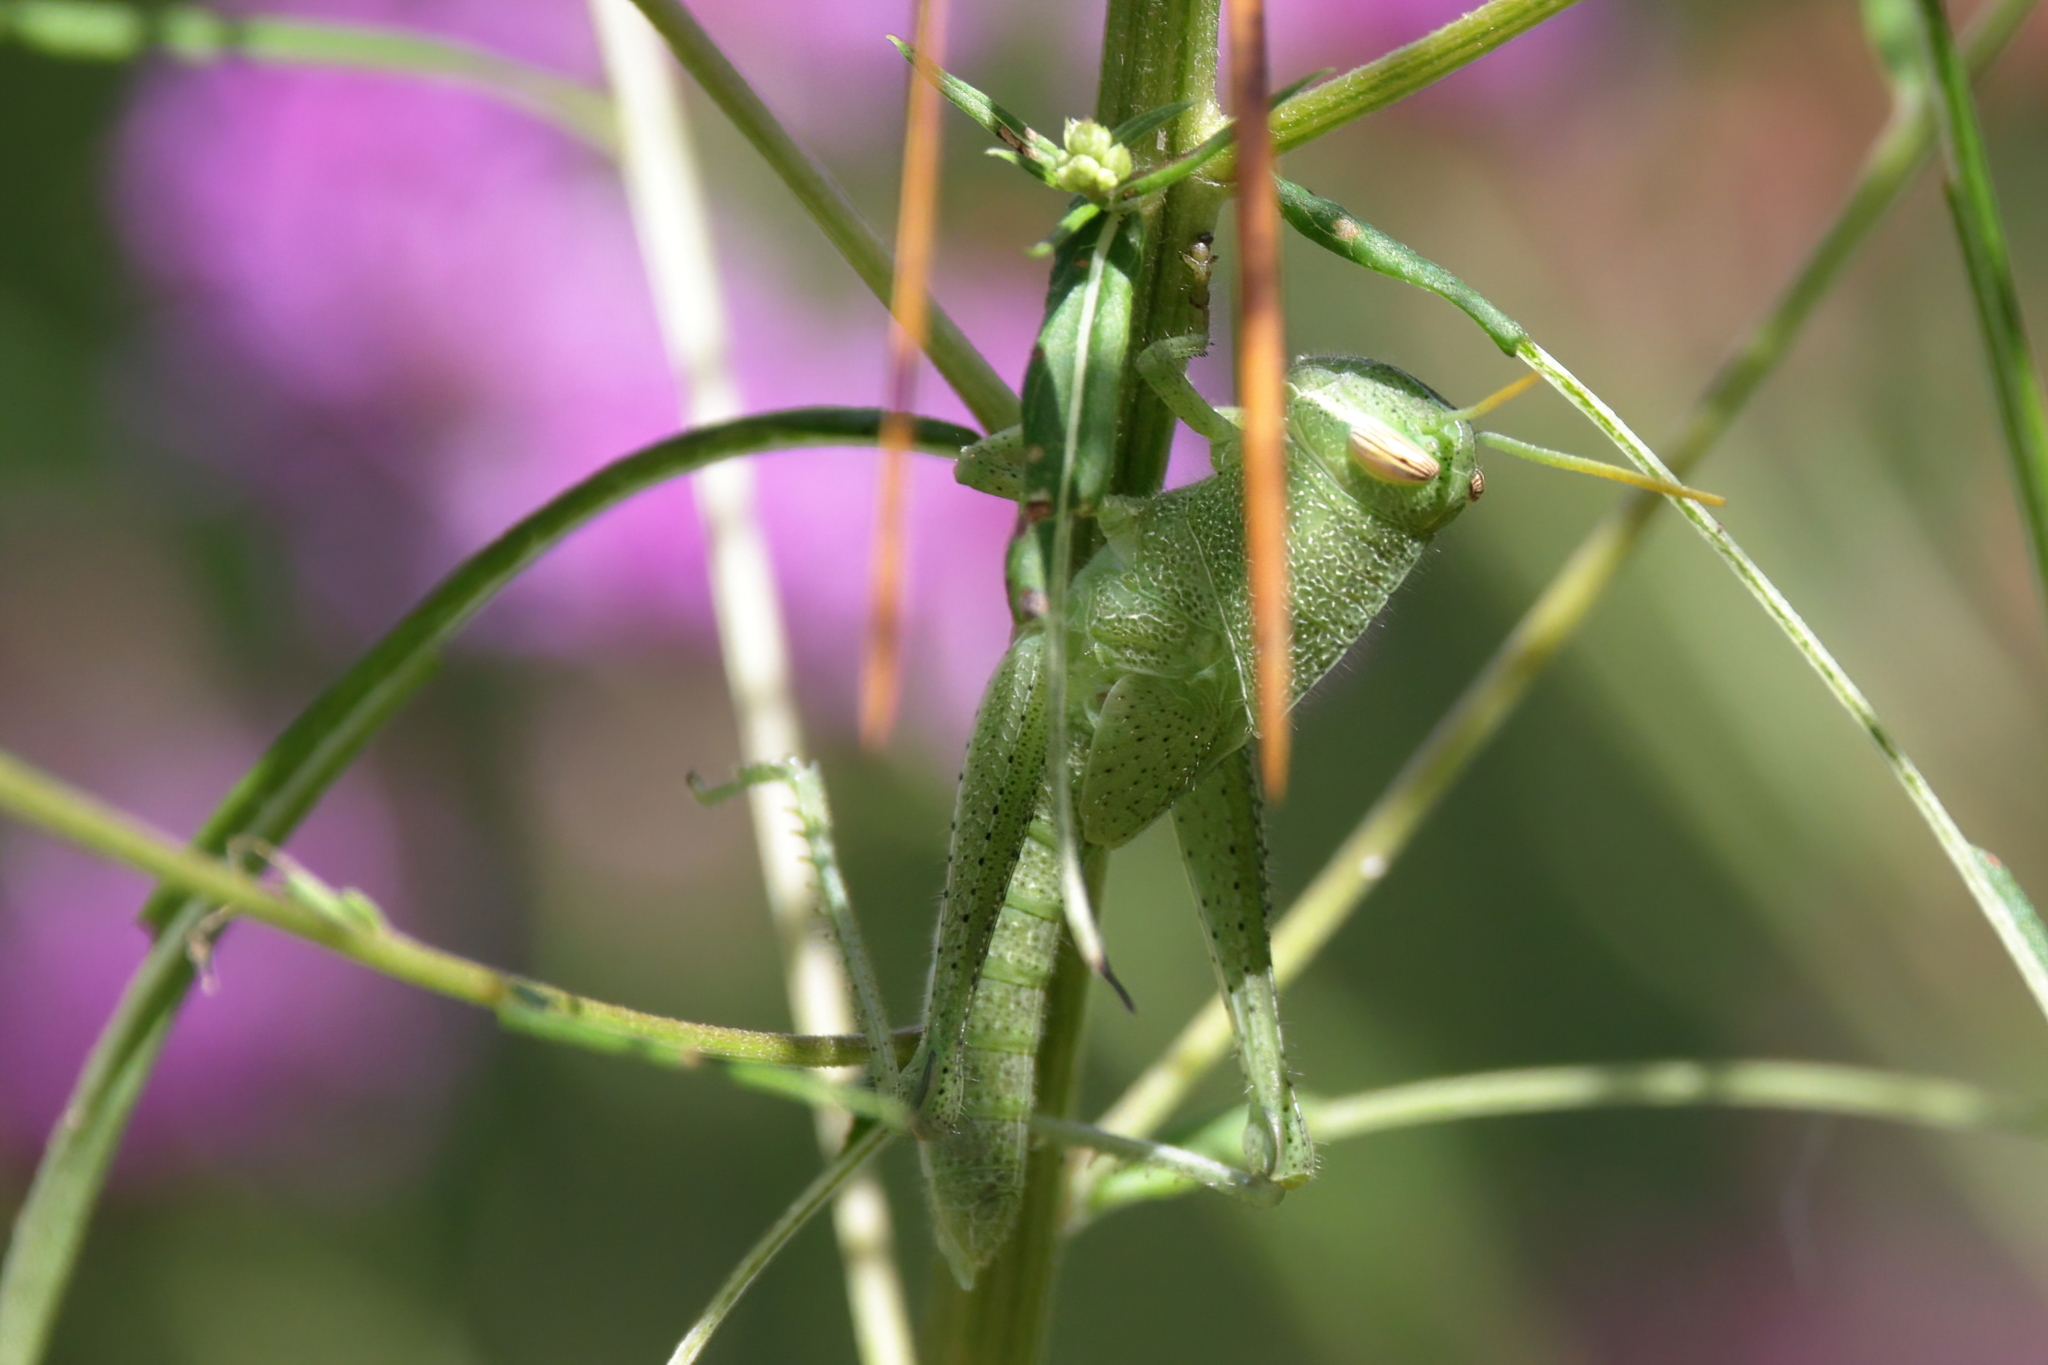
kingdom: Animalia
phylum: Arthropoda
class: Insecta
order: Orthoptera
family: Acrididae
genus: Schistocerca
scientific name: Schistocerca damnifica
